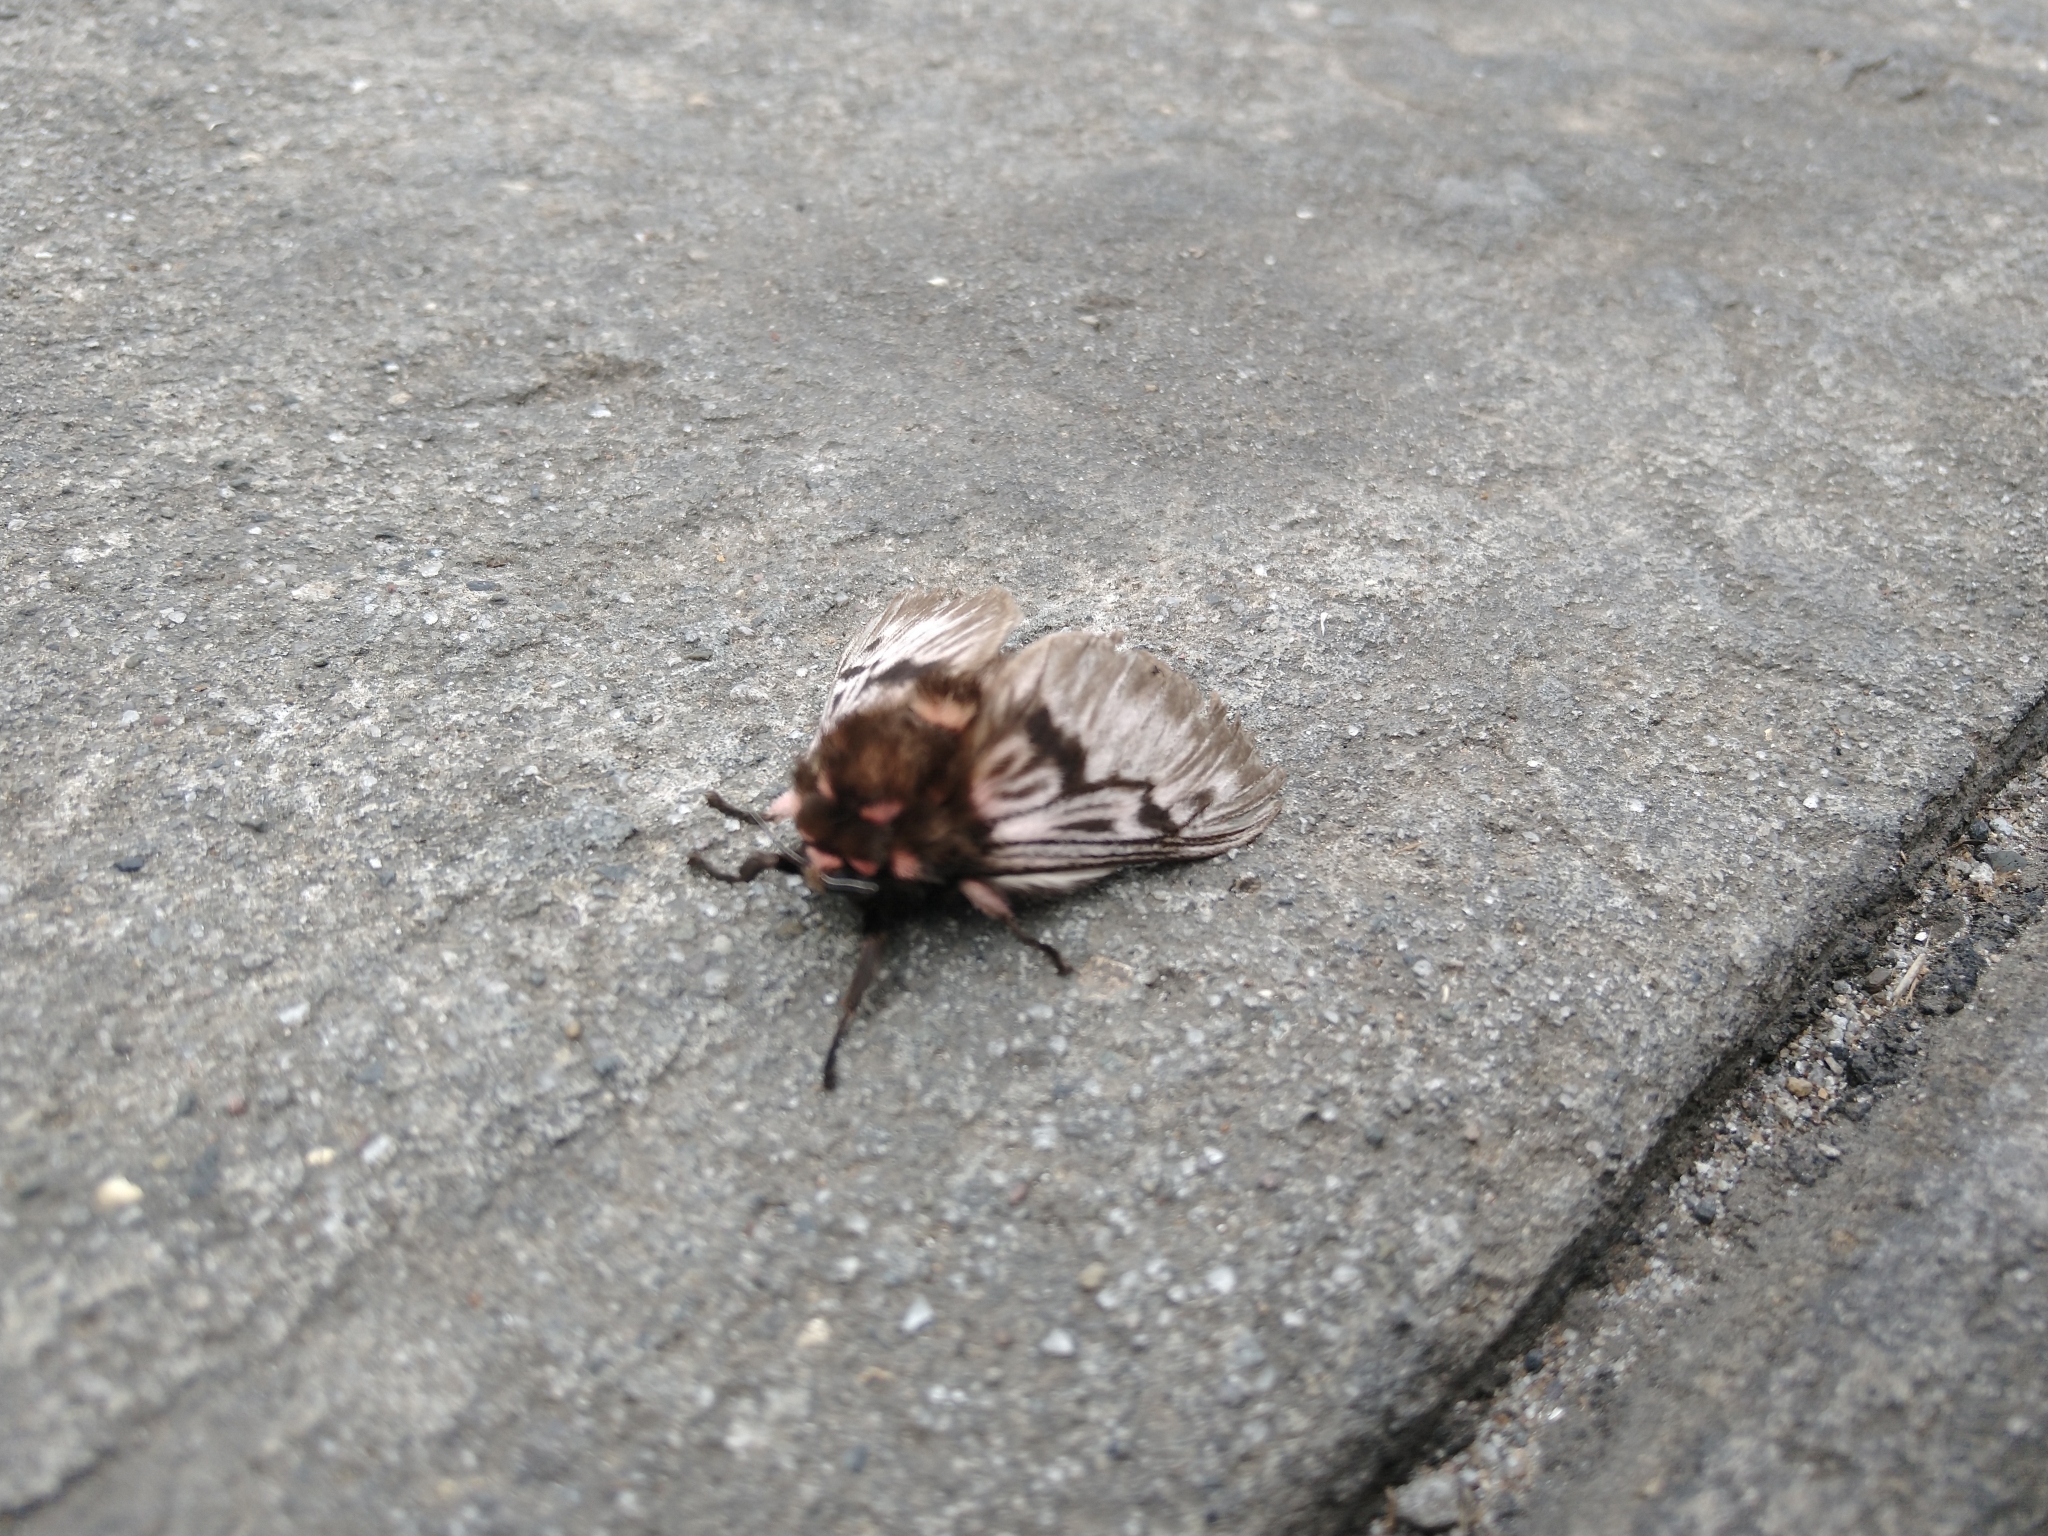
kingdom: Animalia
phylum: Arthropoda
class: Insecta
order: Lepidoptera
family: Megalopygidae
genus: Megalopyge
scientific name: Megalopyge lanata
